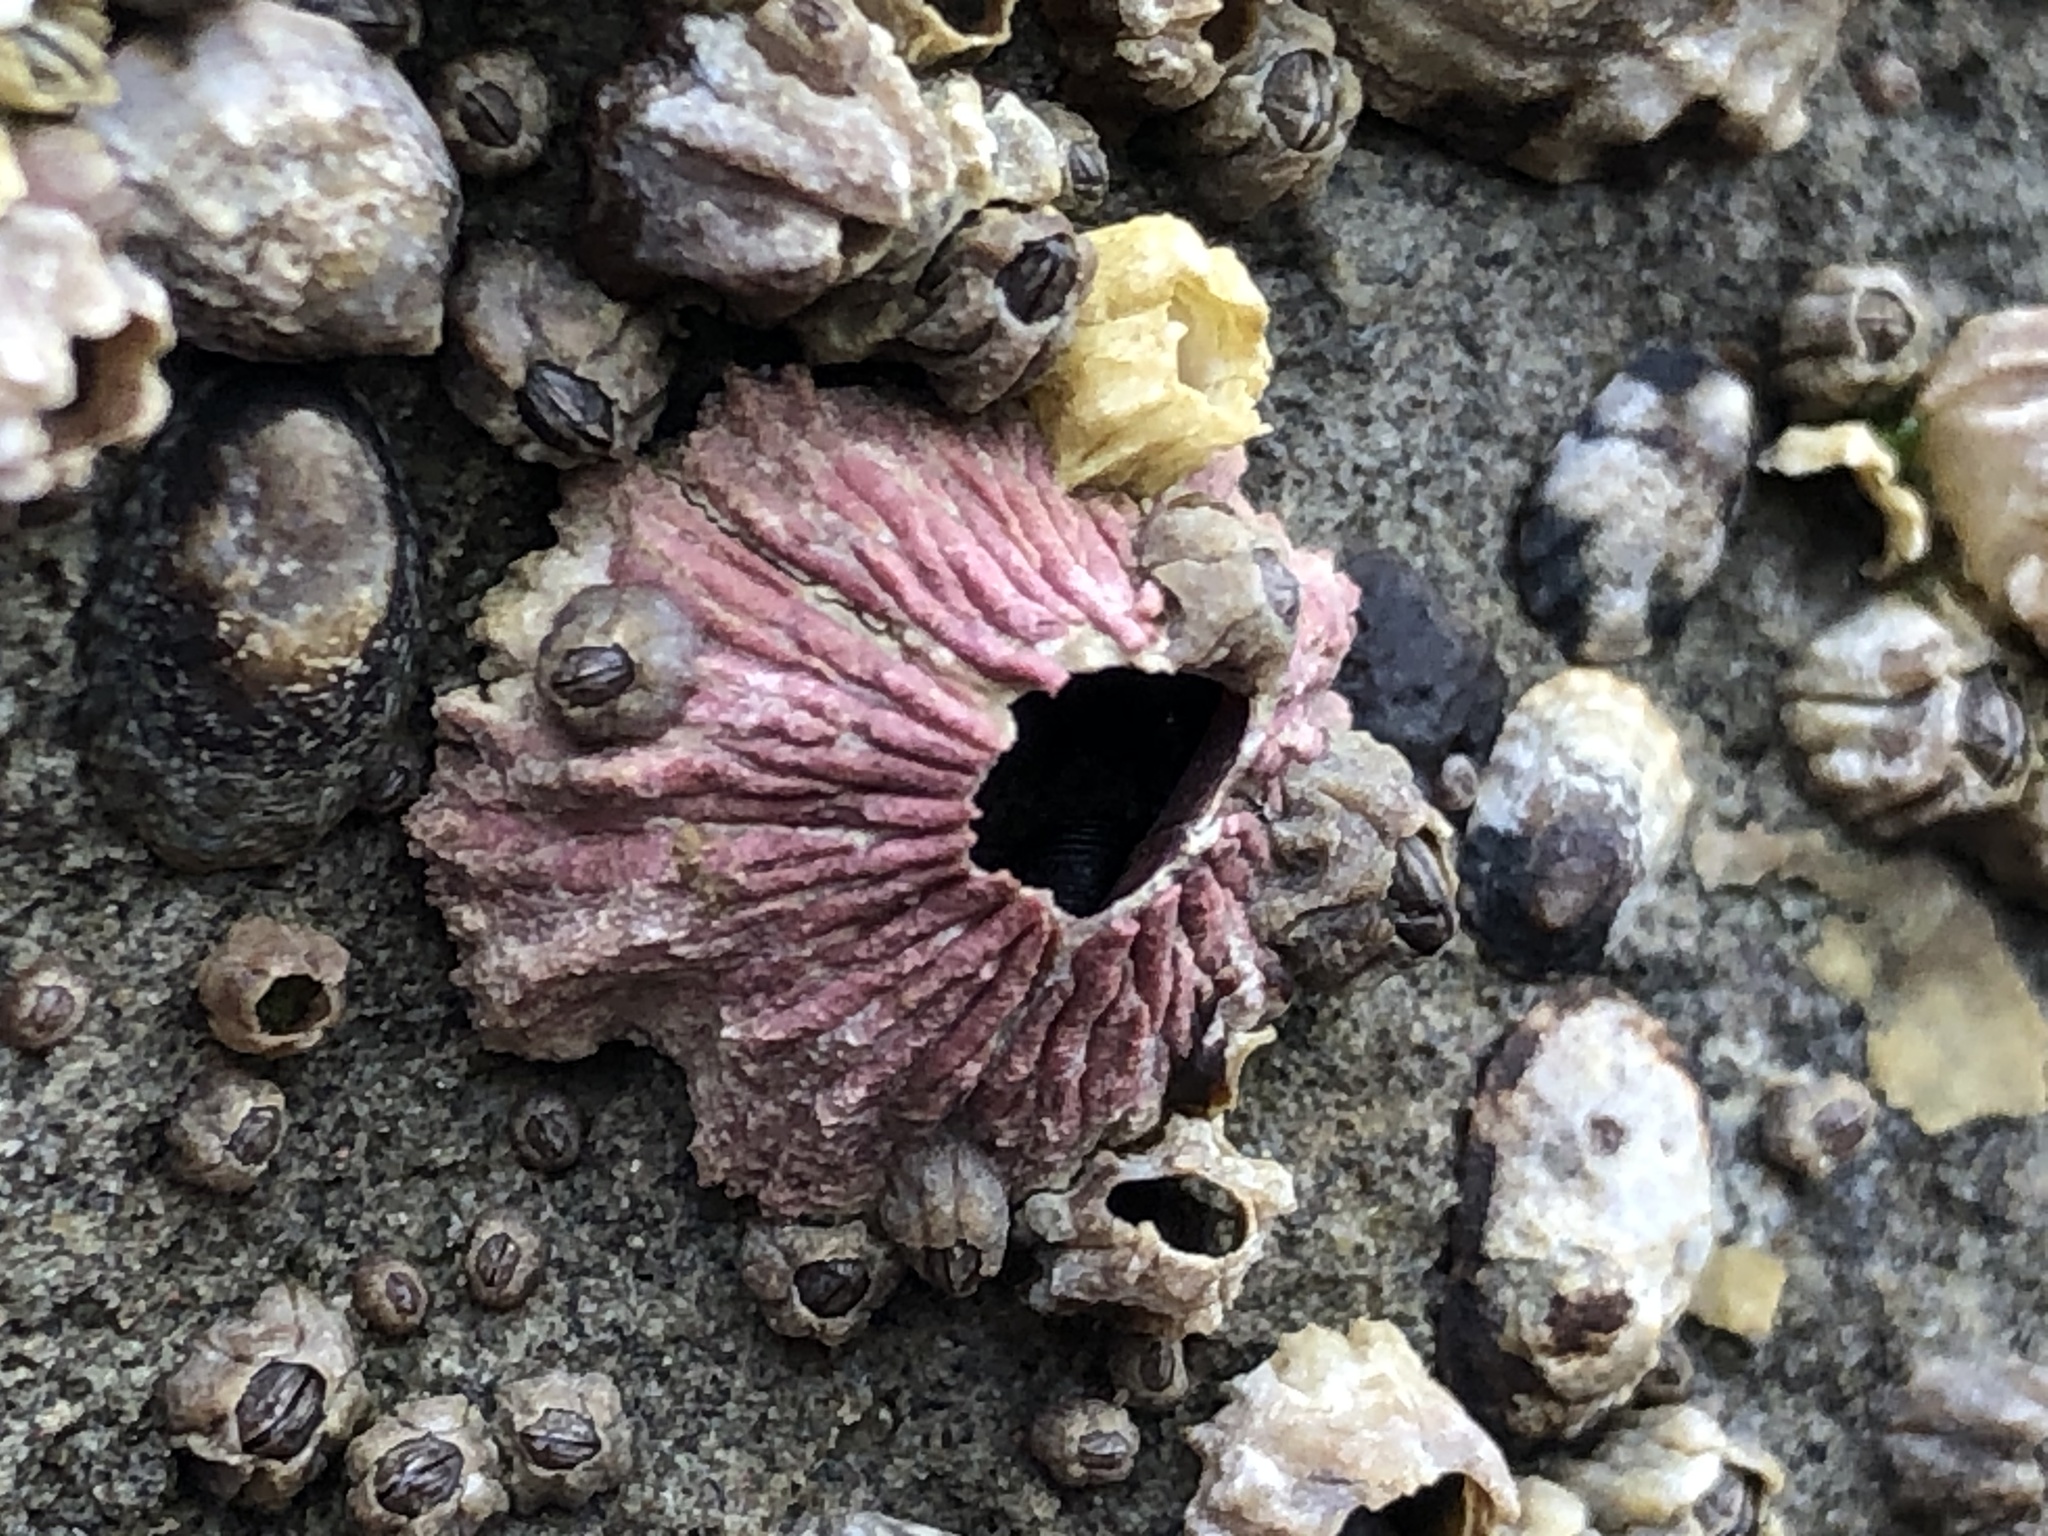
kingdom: Animalia
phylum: Arthropoda
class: Maxillopoda
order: Sessilia
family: Tetraclitidae
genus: Tetraclita
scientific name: Tetraclita rubescens
